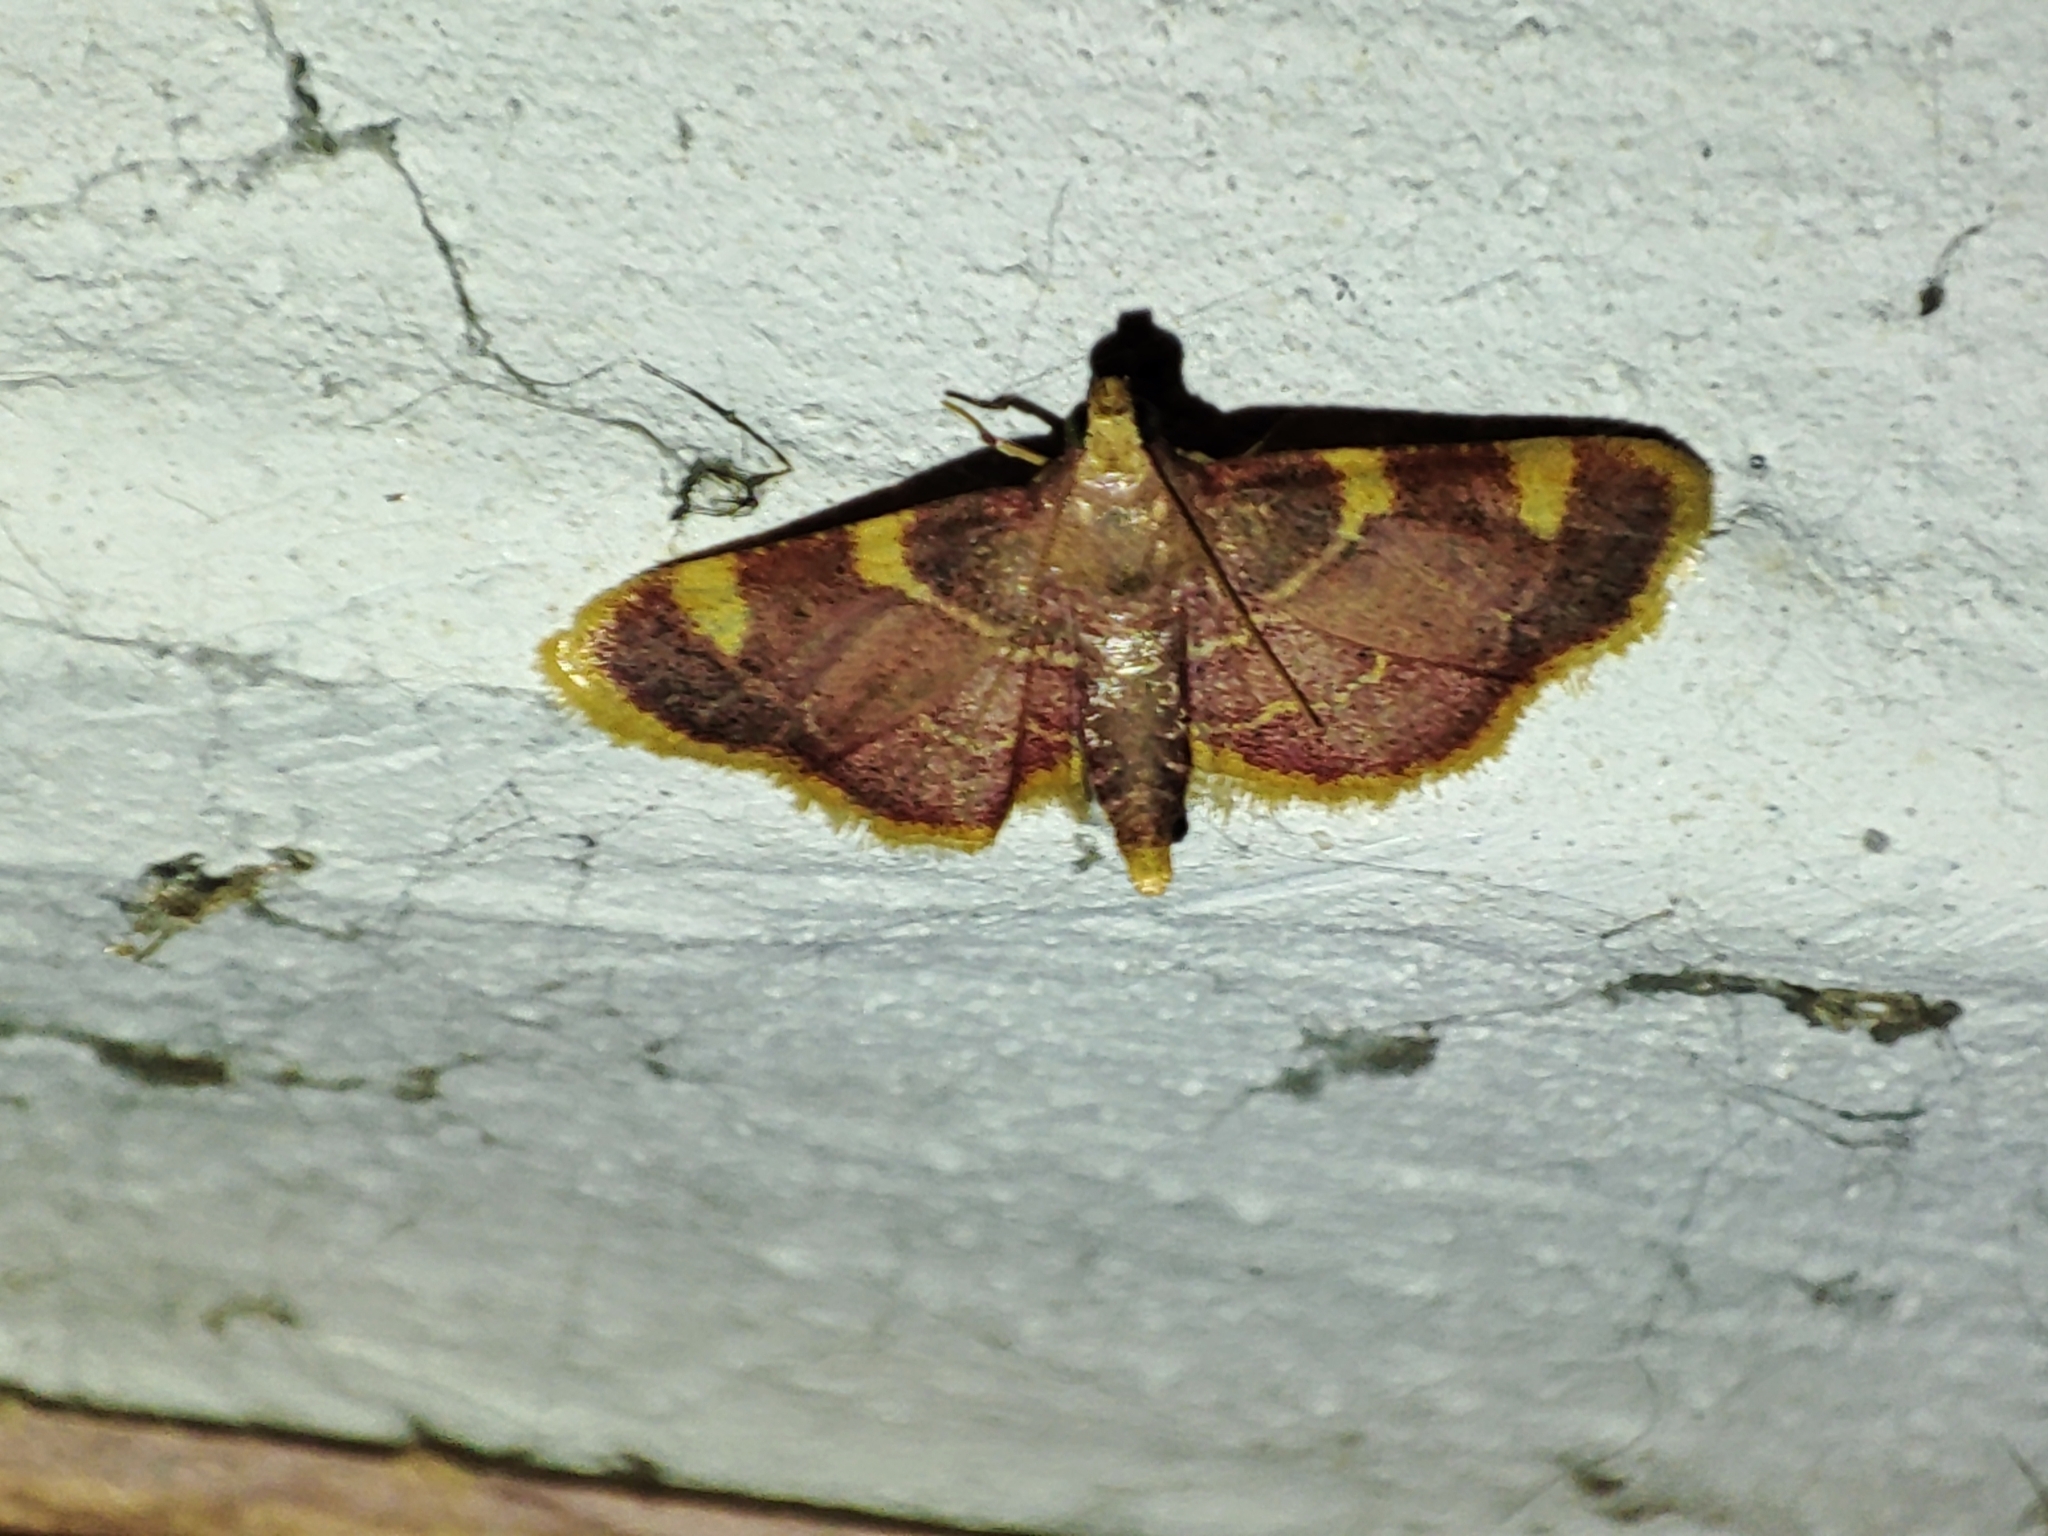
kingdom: Animalia
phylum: Arthropoda
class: Insecta
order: Lepidoptera
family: Pyralidae
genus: Hypsopygia
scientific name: Hypsopygia costalis
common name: Gold triangle
